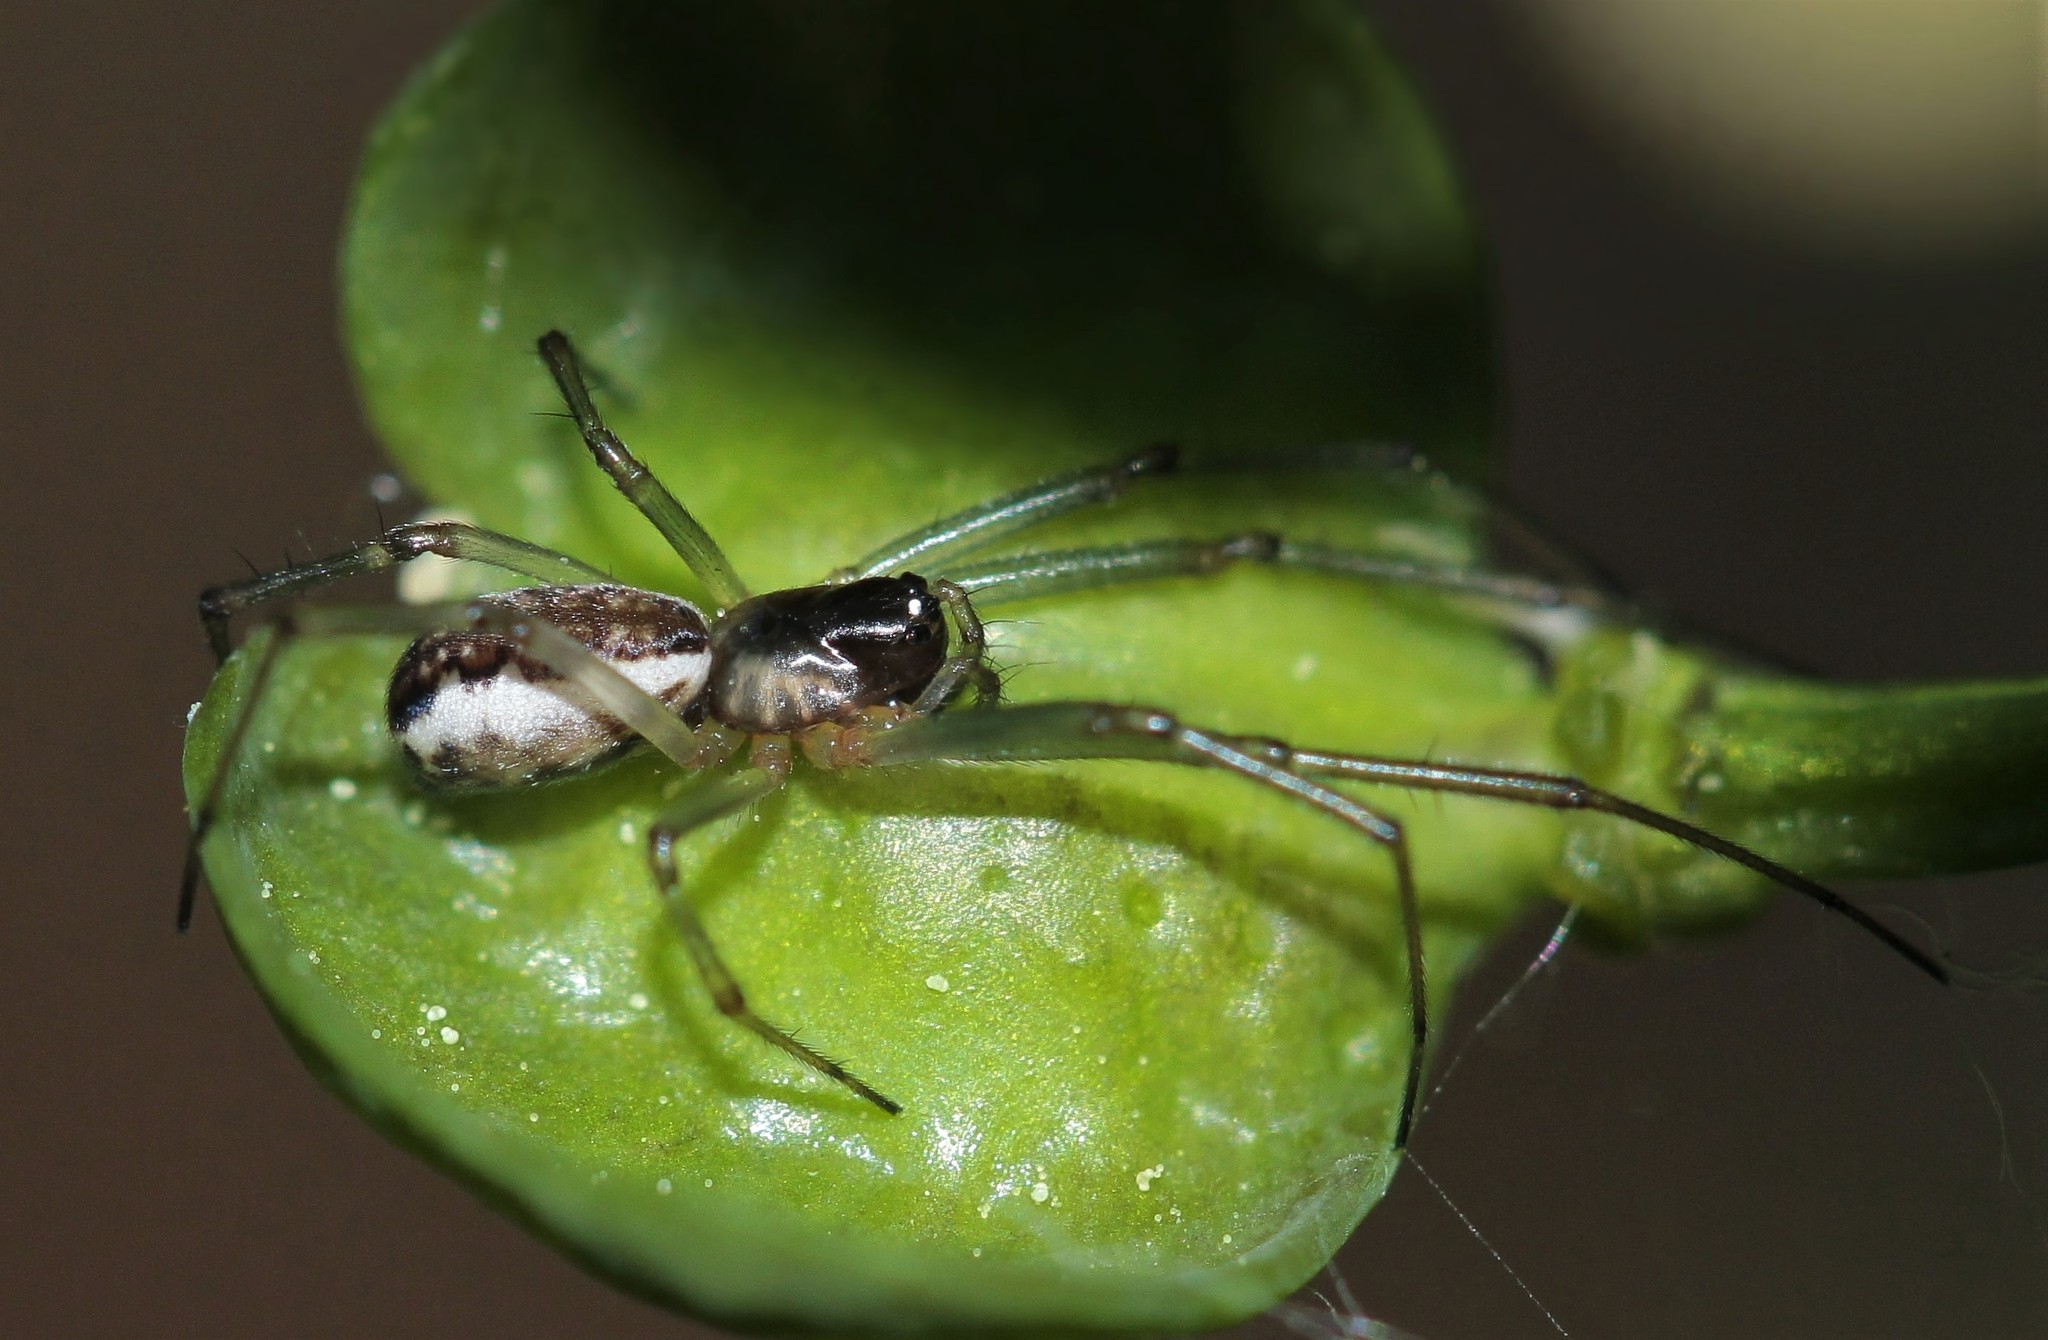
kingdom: Animalia
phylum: Arthropoda
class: Arachnida
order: Araneae
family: Linyphiidae
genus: Neriene
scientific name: Neriene peltata
